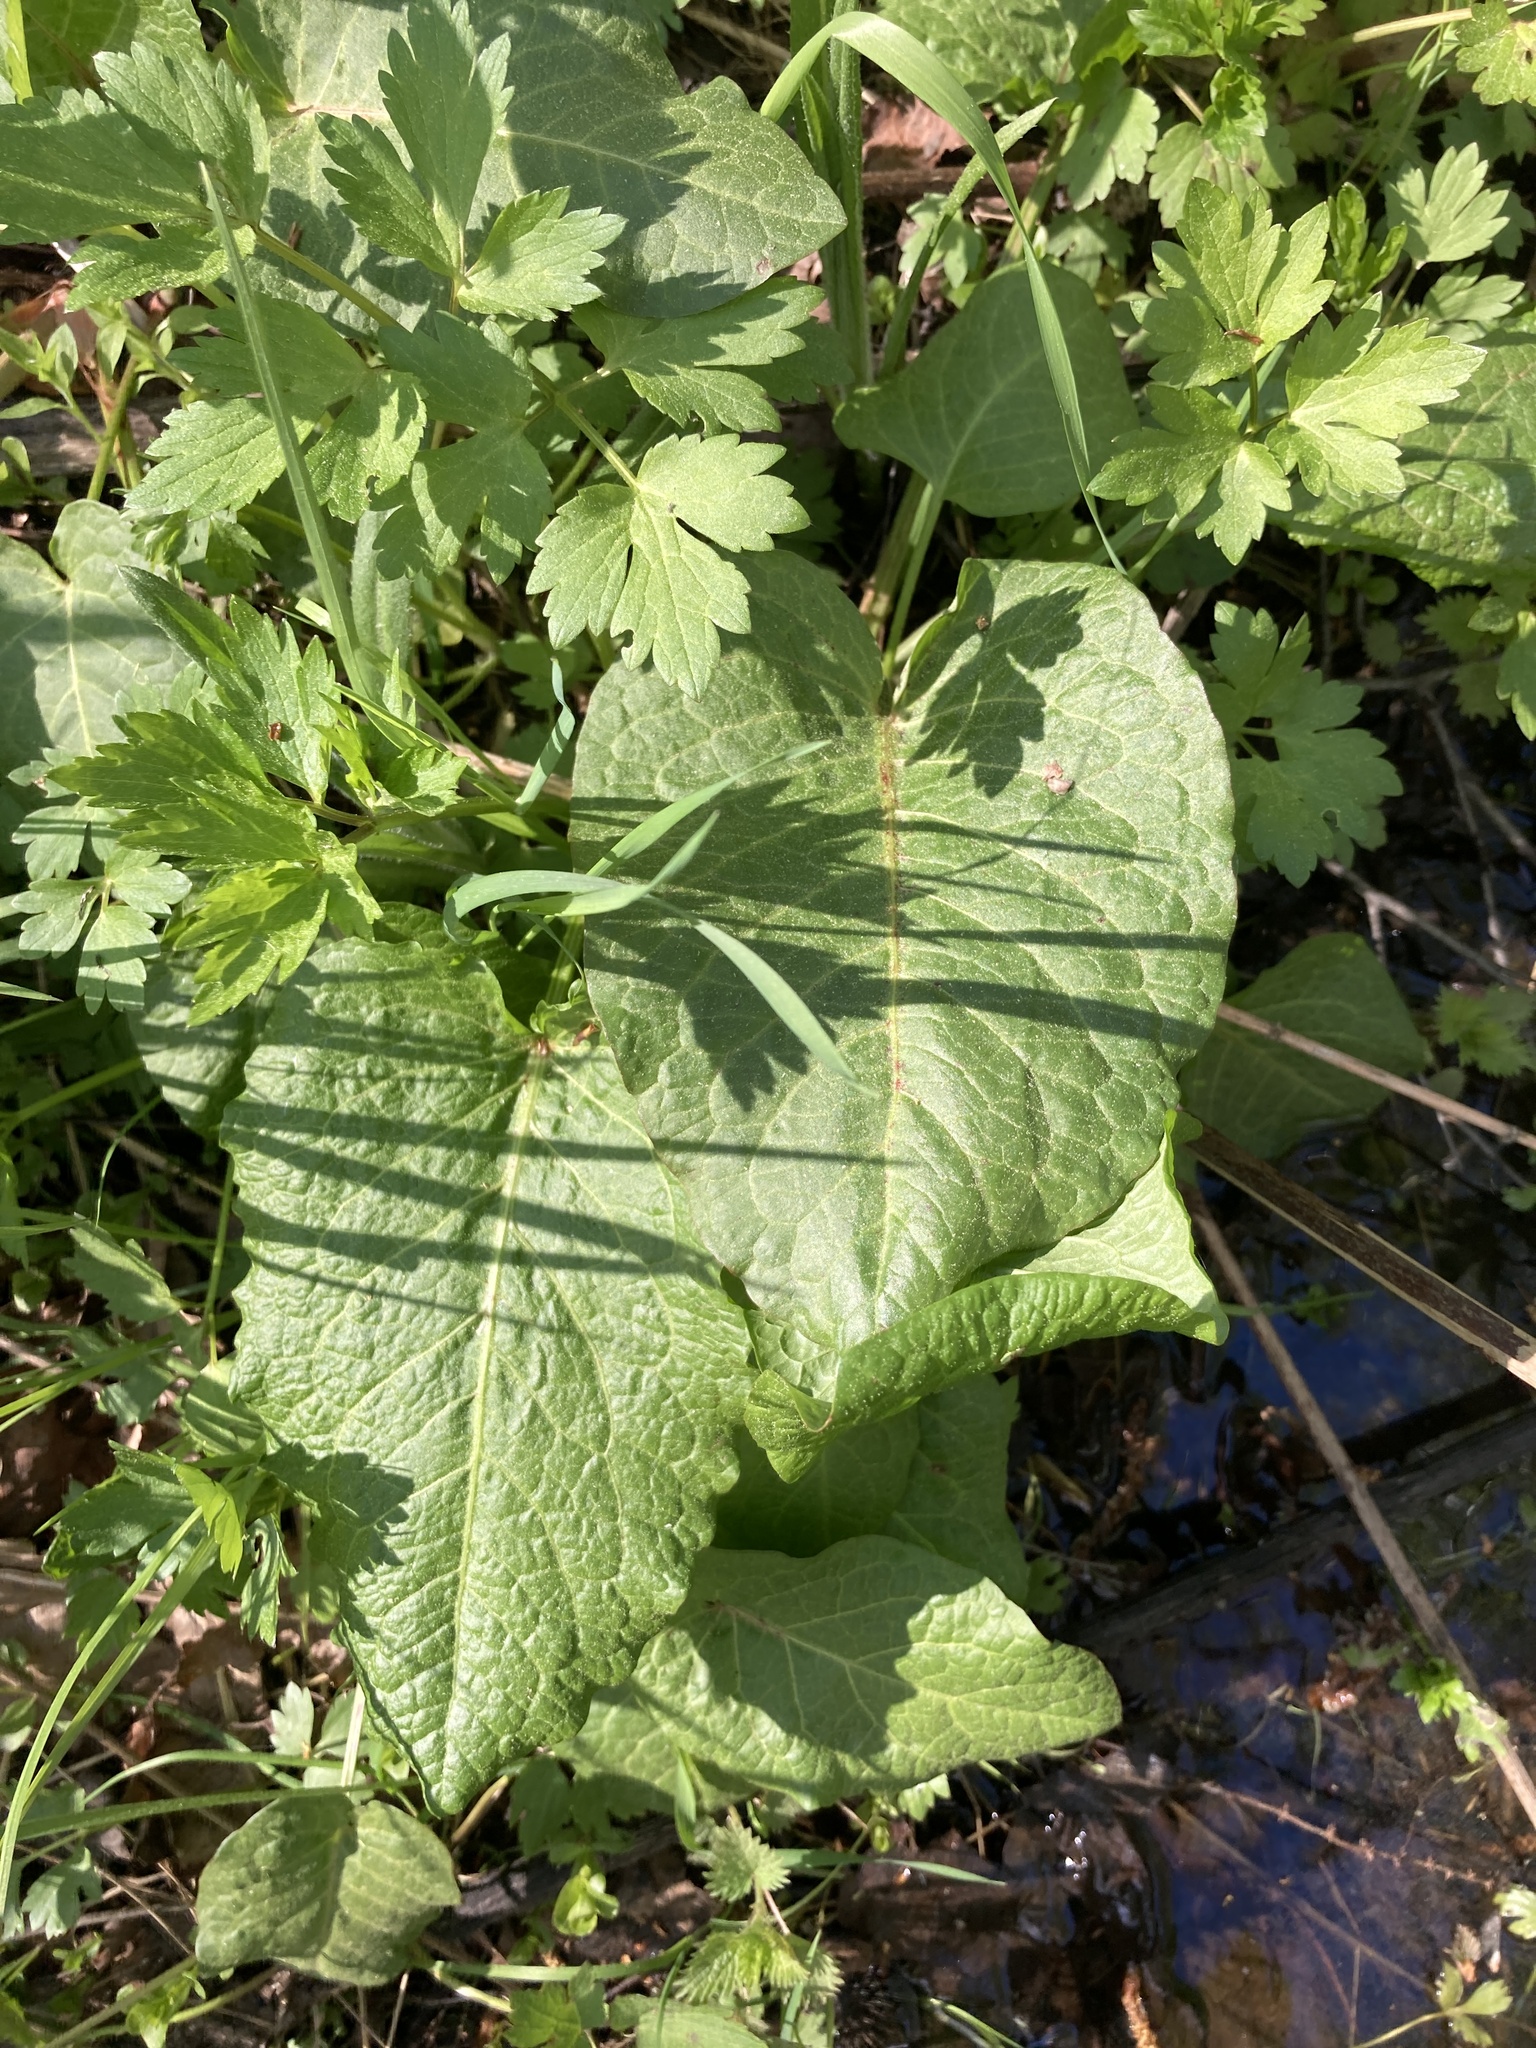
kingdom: Plantae
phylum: Tracheophyta
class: Magnoliopsida
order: Caryophyllales
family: Polygonaceae
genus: Rumex
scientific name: Rumex obtusifolius
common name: Bitter dock
